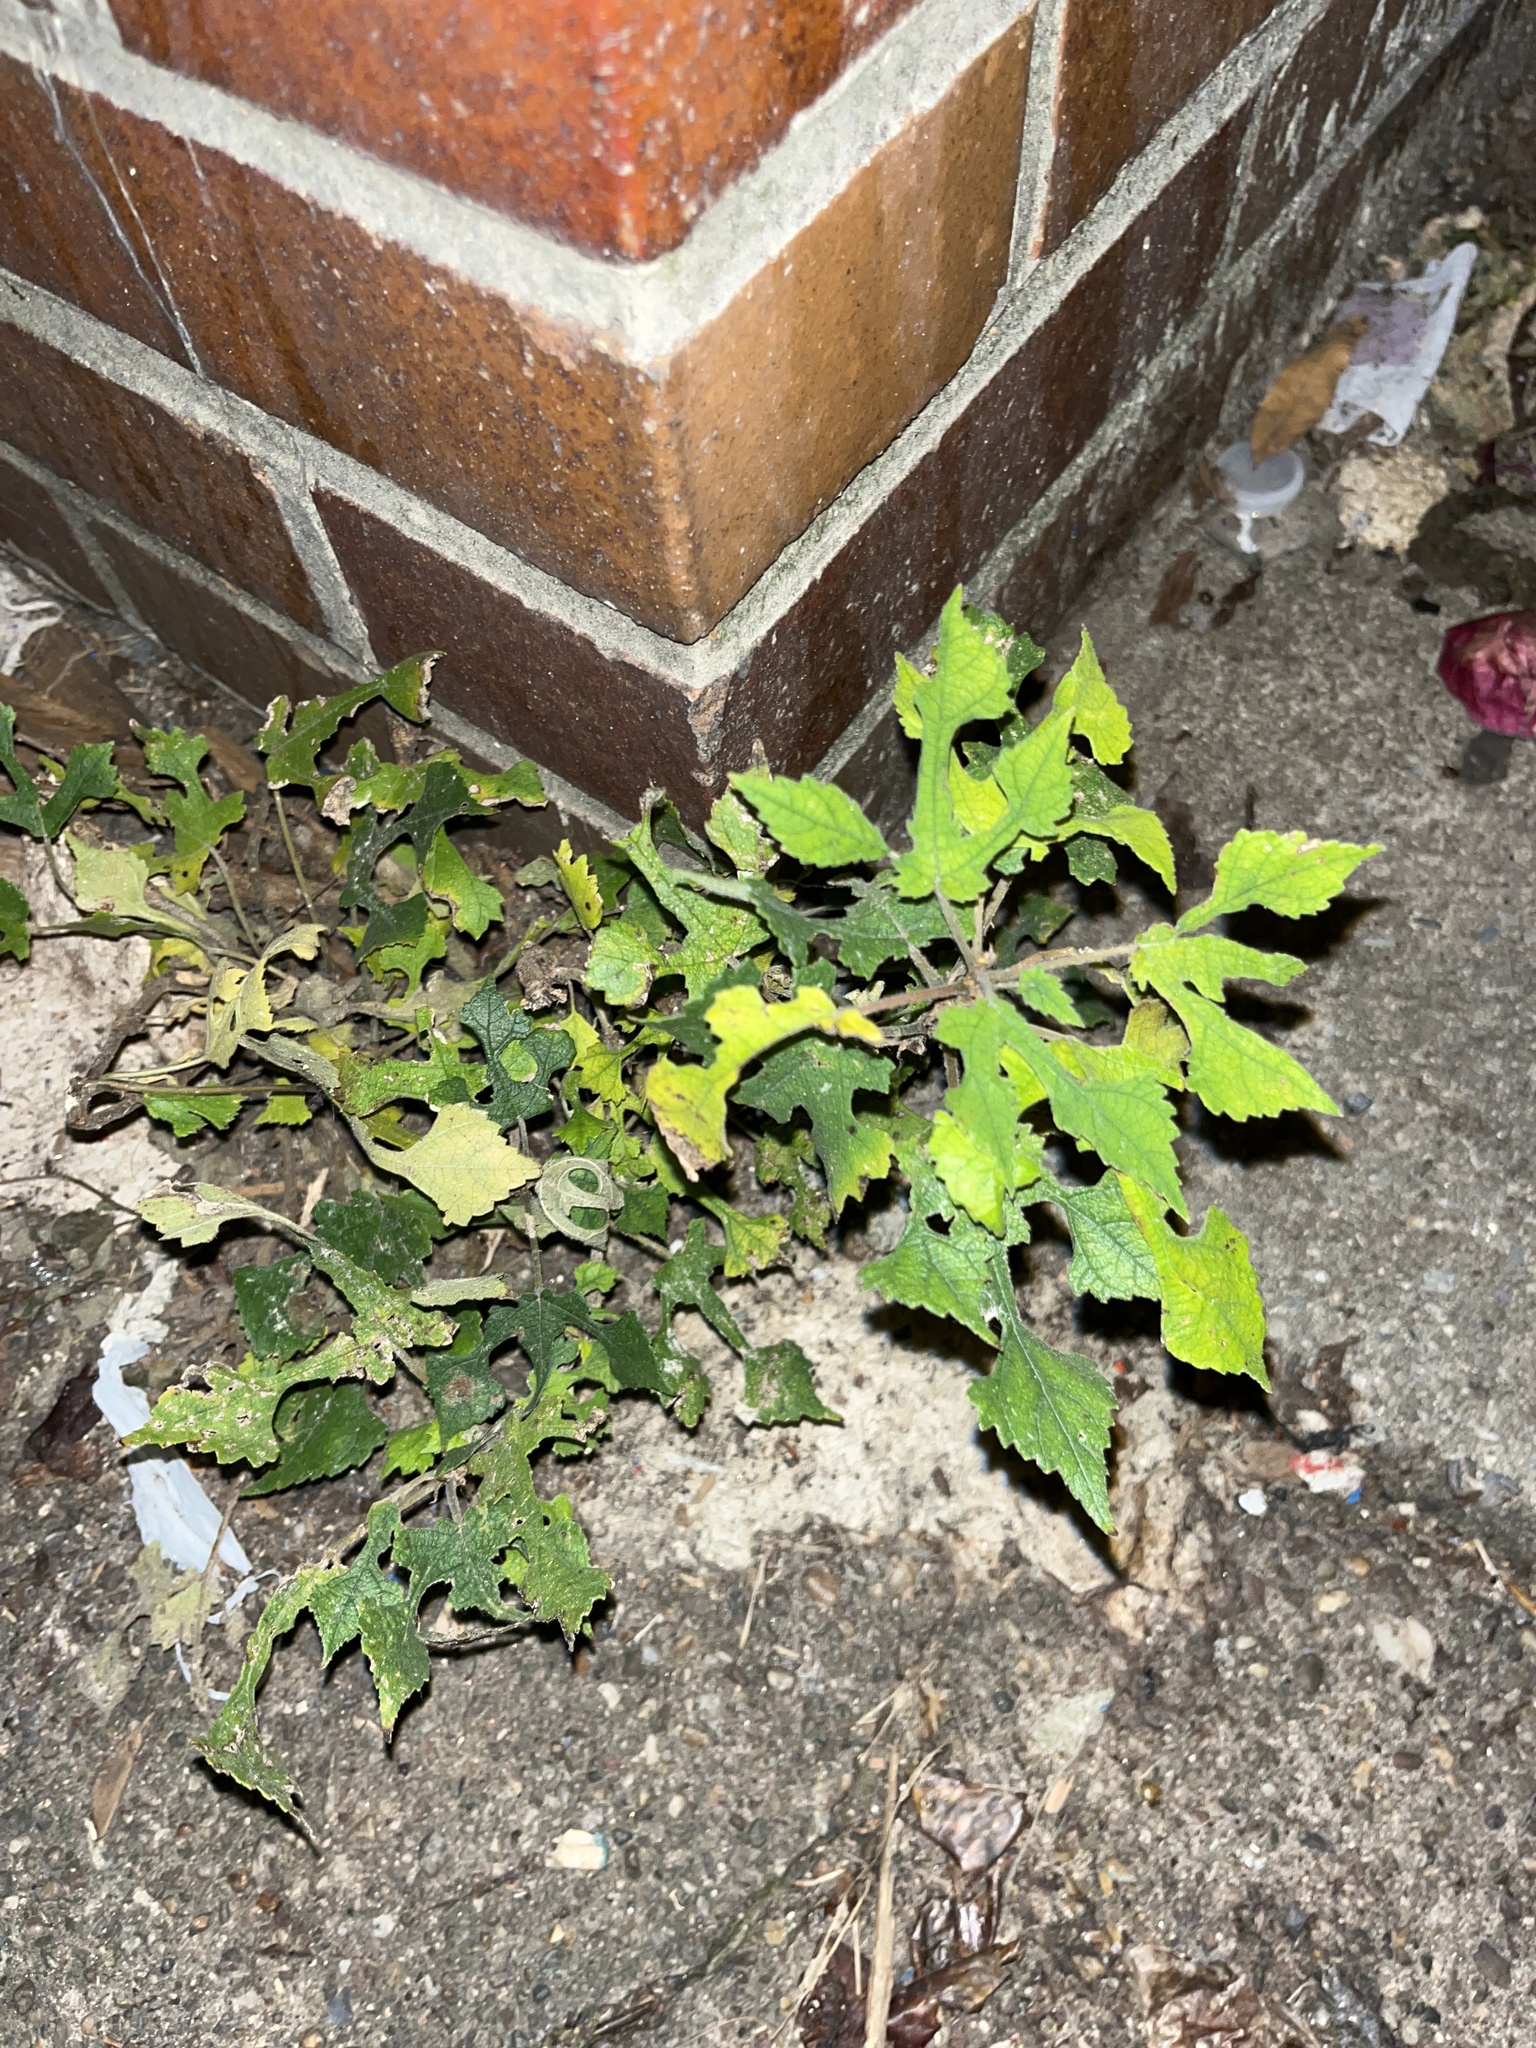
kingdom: Plantae
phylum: Tracheophyta
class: Magnoliopsida
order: Rosales
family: Moraceae
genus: Broussonetia
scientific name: Broussonetia papyrifera
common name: Paper mulberry
